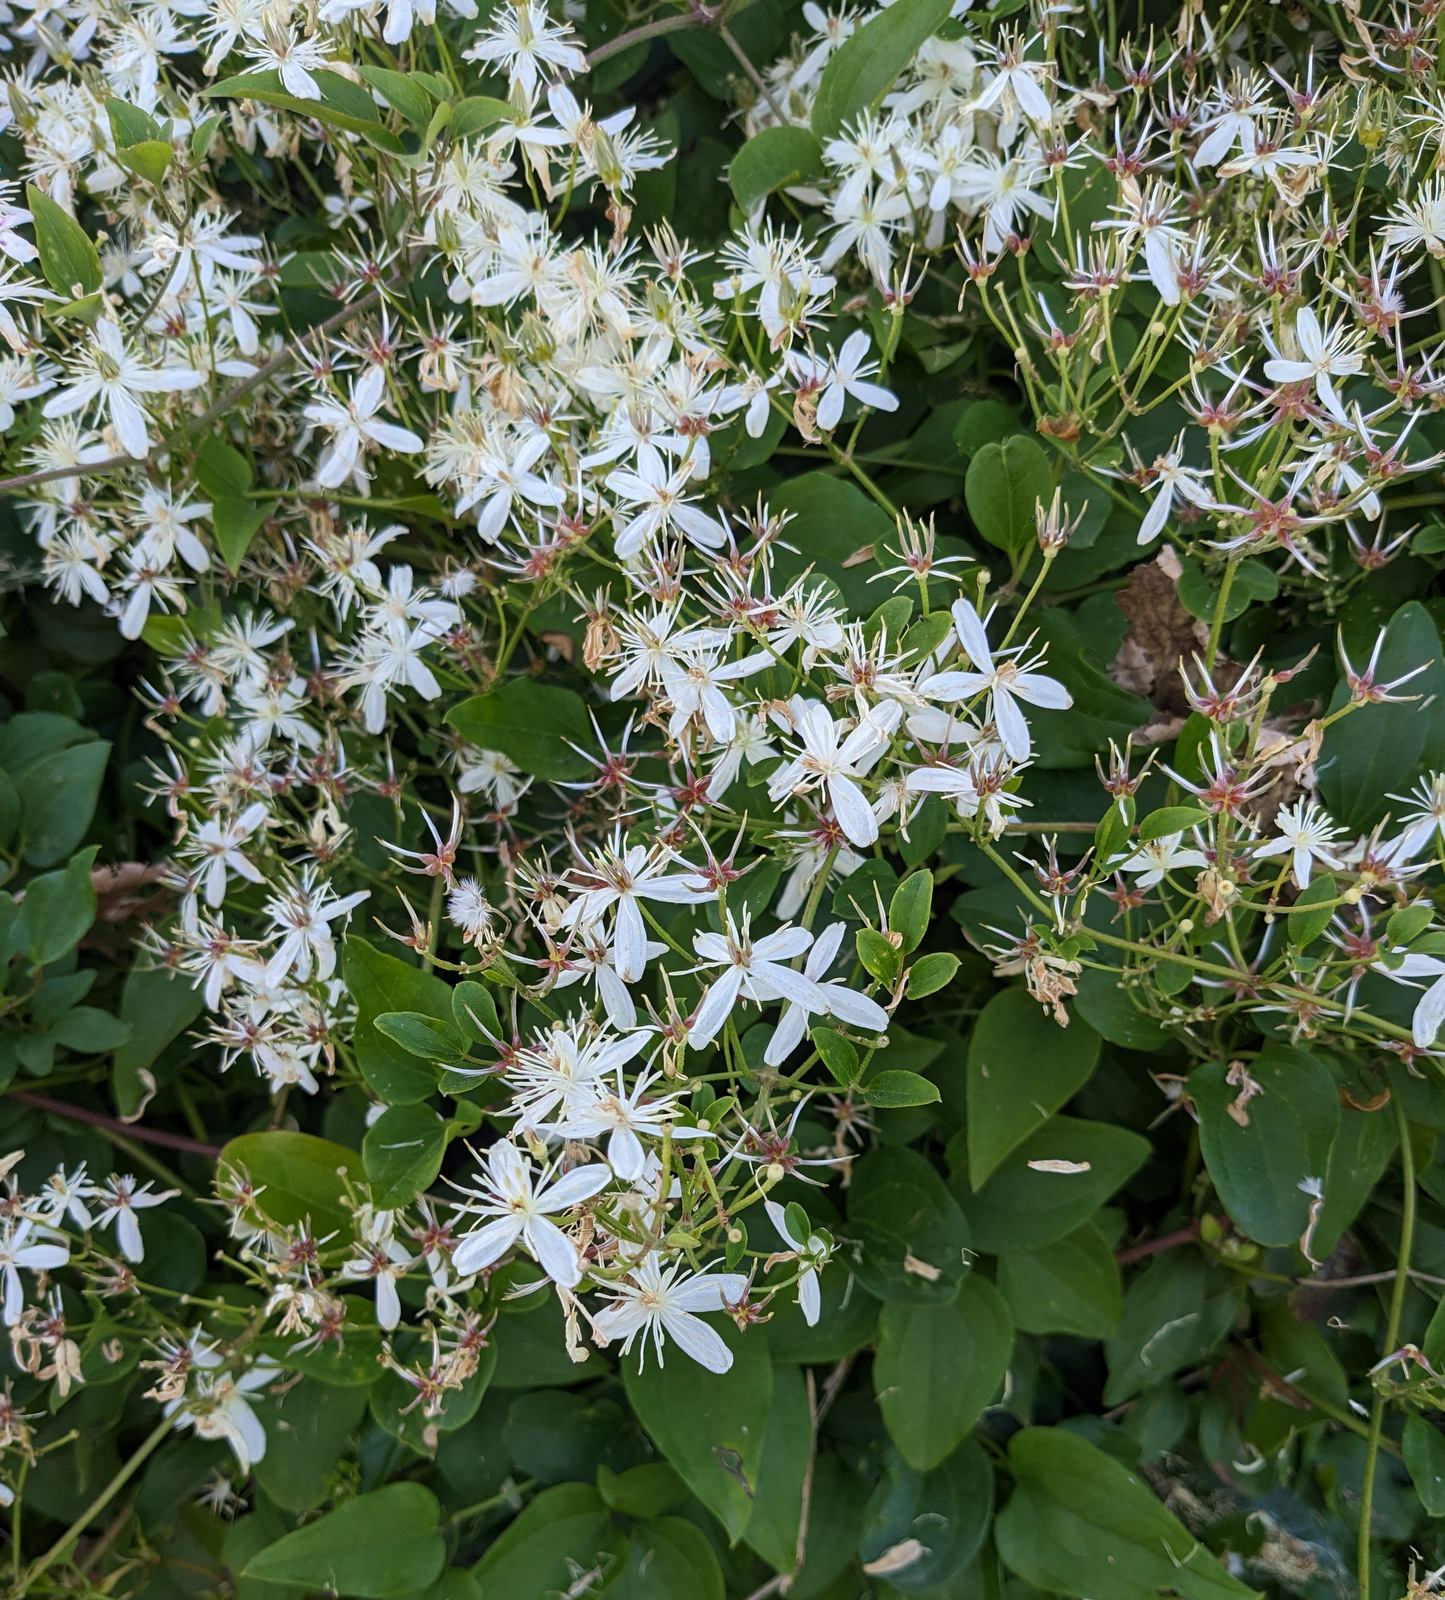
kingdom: Plantae
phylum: Tracheophyta
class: Magnoliopsida
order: Ranunculales
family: Ranunculaceae
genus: Clematis
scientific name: Clematis terniflora
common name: Sweet autumn clematis
